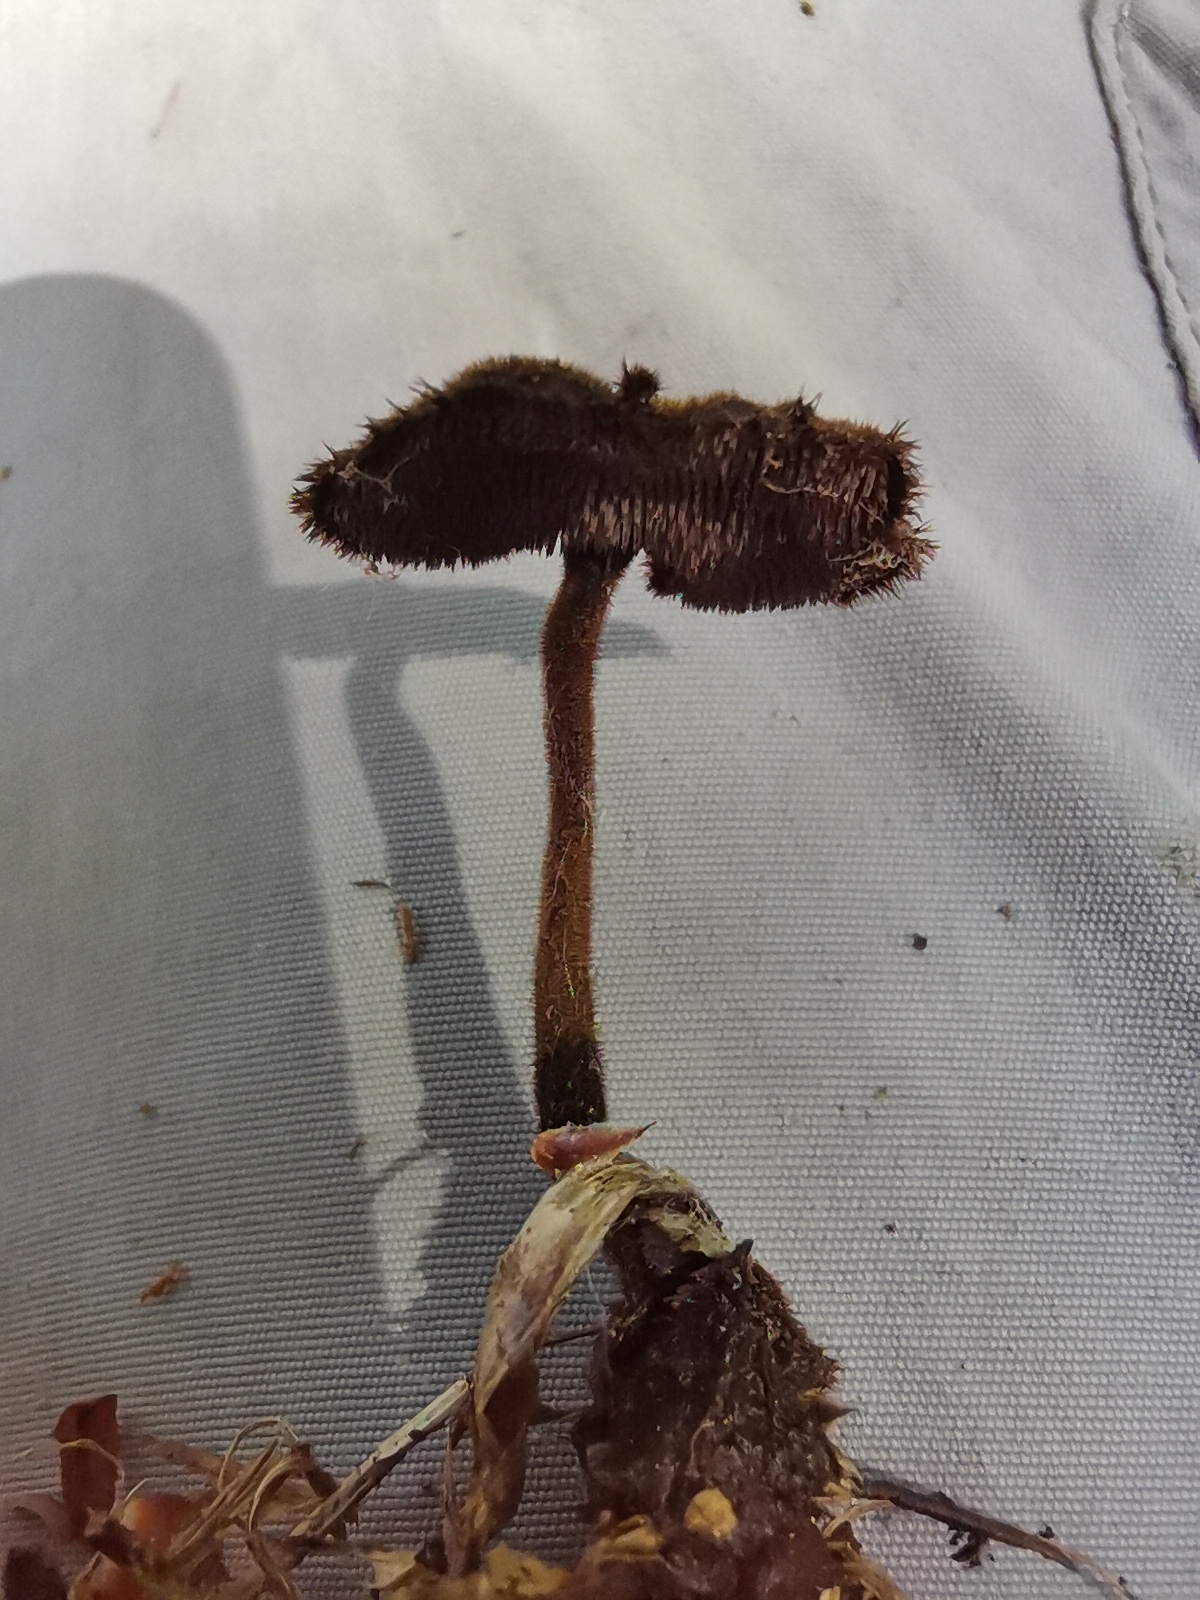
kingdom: Fungi
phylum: Basidiomycota
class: Agaricomycetes
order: Russulales
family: Auriscalpiaceae
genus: Auriscalpium
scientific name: Auriscalpium vulgare
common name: Earpick fungus
